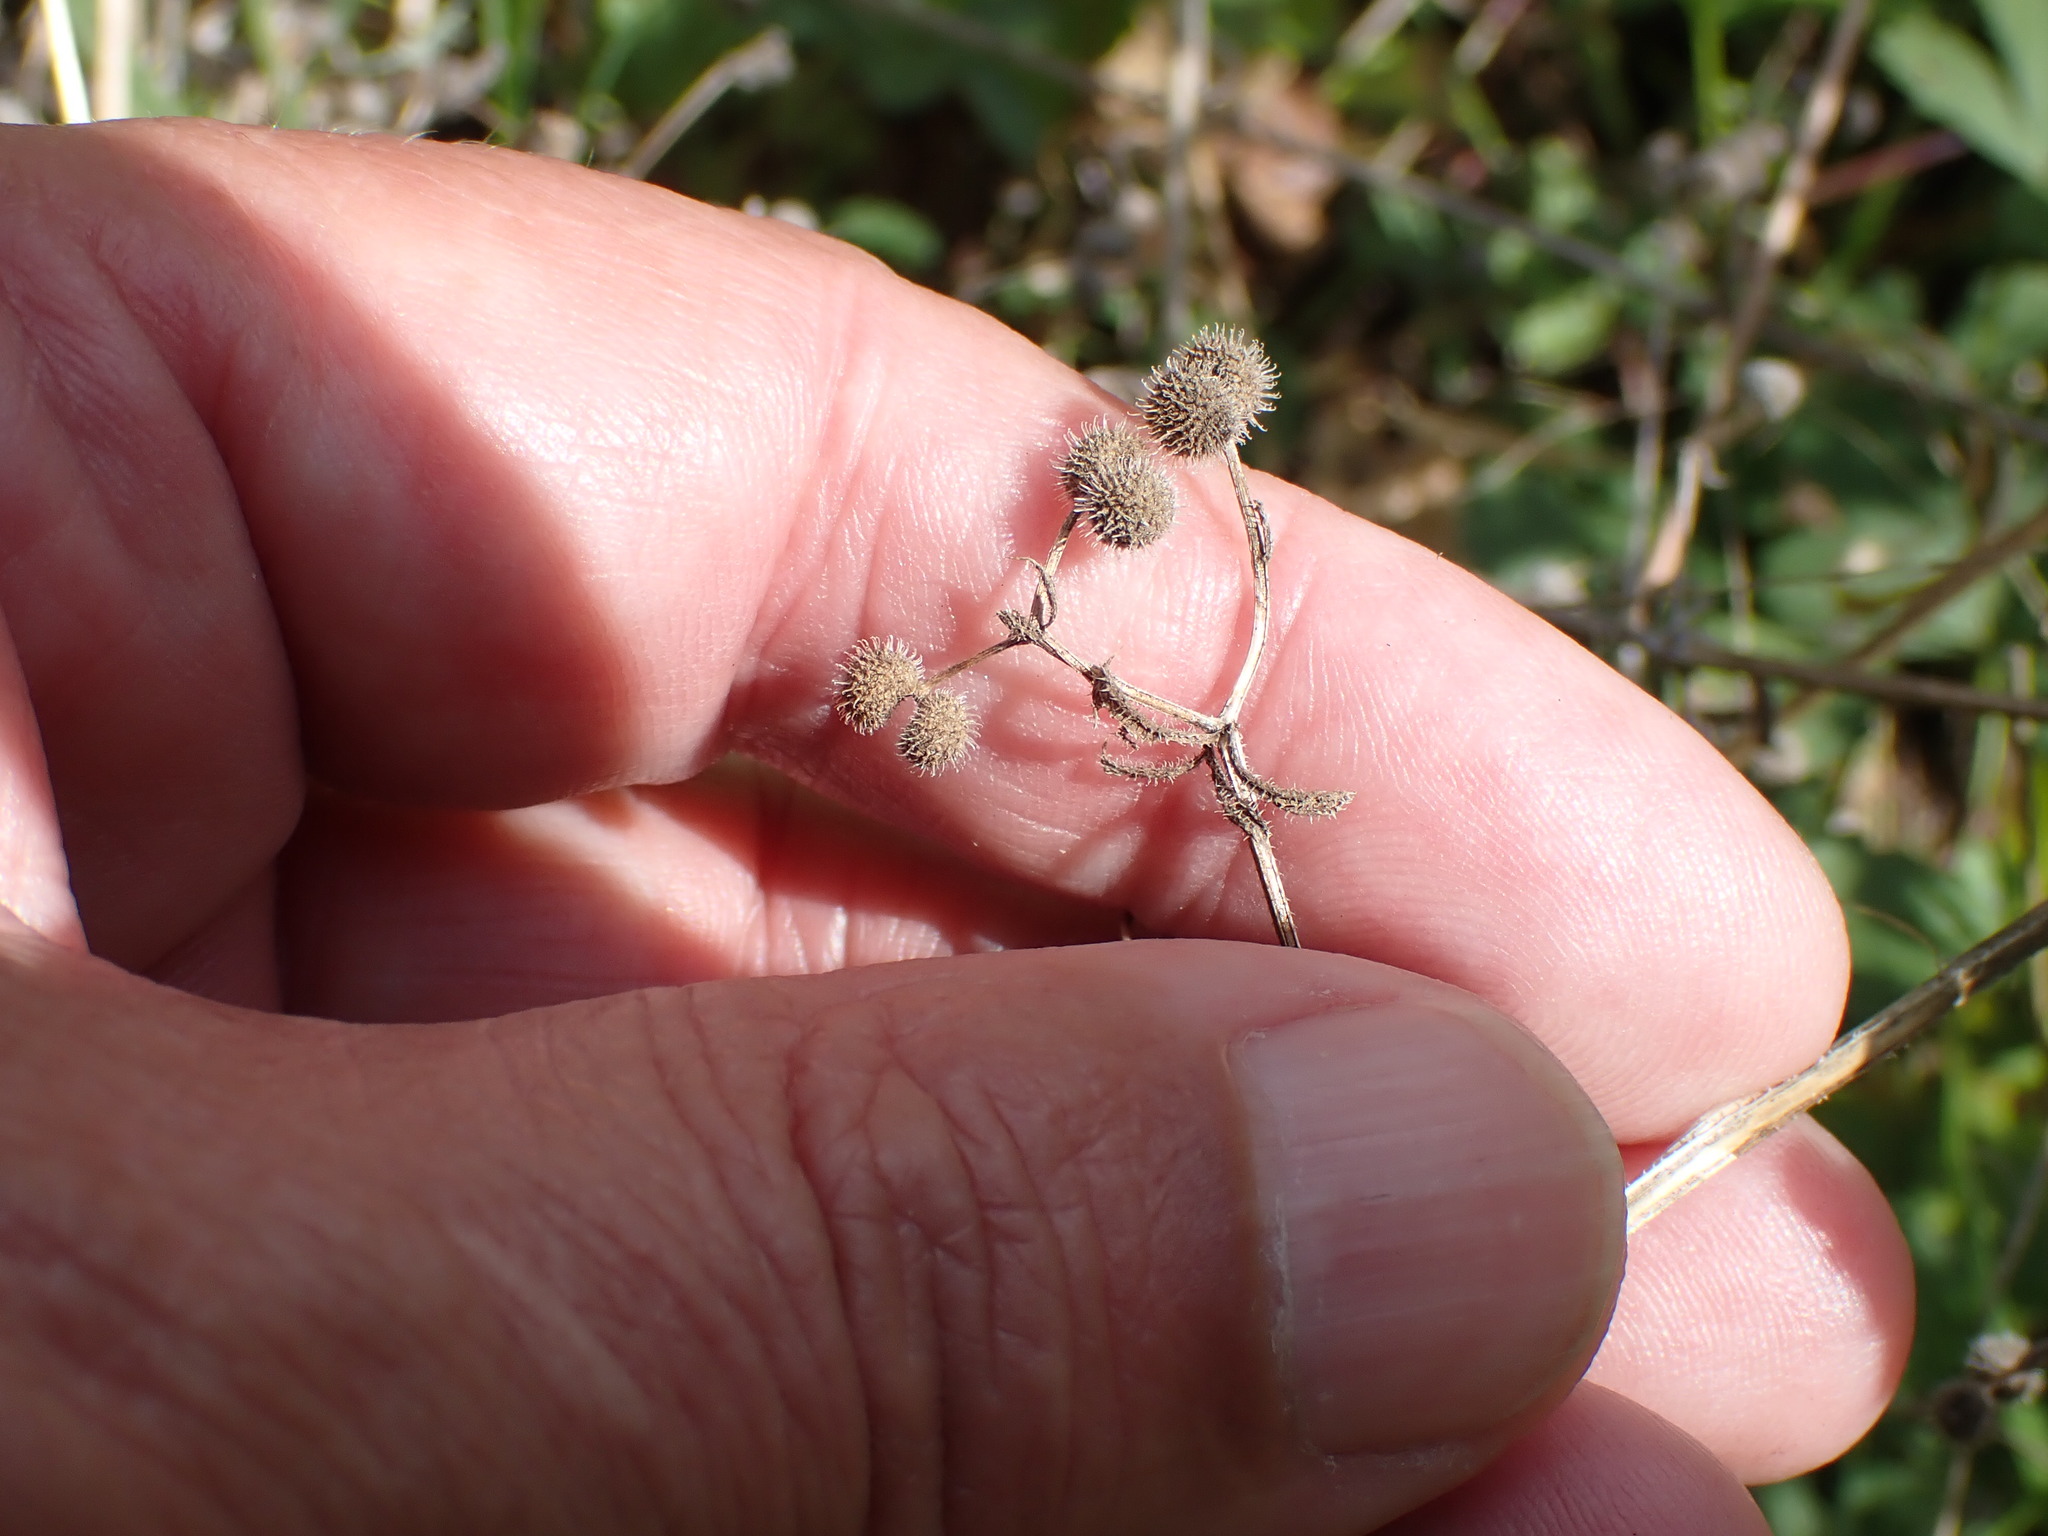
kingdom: Plantae
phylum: Tracheophyta
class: Magnoliopsida
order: Gentianales
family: Rubiaceae
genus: Galium
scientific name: Galium aparine
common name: Cleavers
